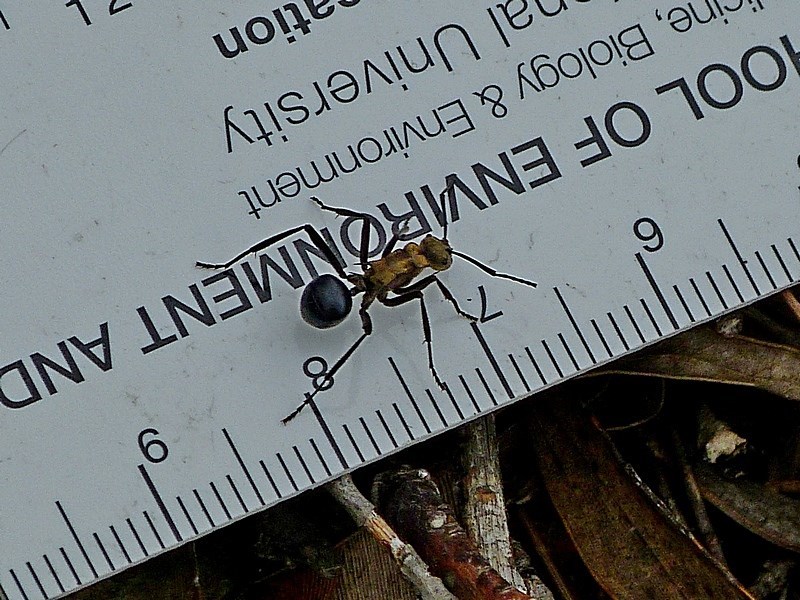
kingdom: Animalia
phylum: Arthropoda
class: Insecta
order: Hymenoptera
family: Formicidae
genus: Polyrhachis
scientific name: Polyrhachis semiaurata
